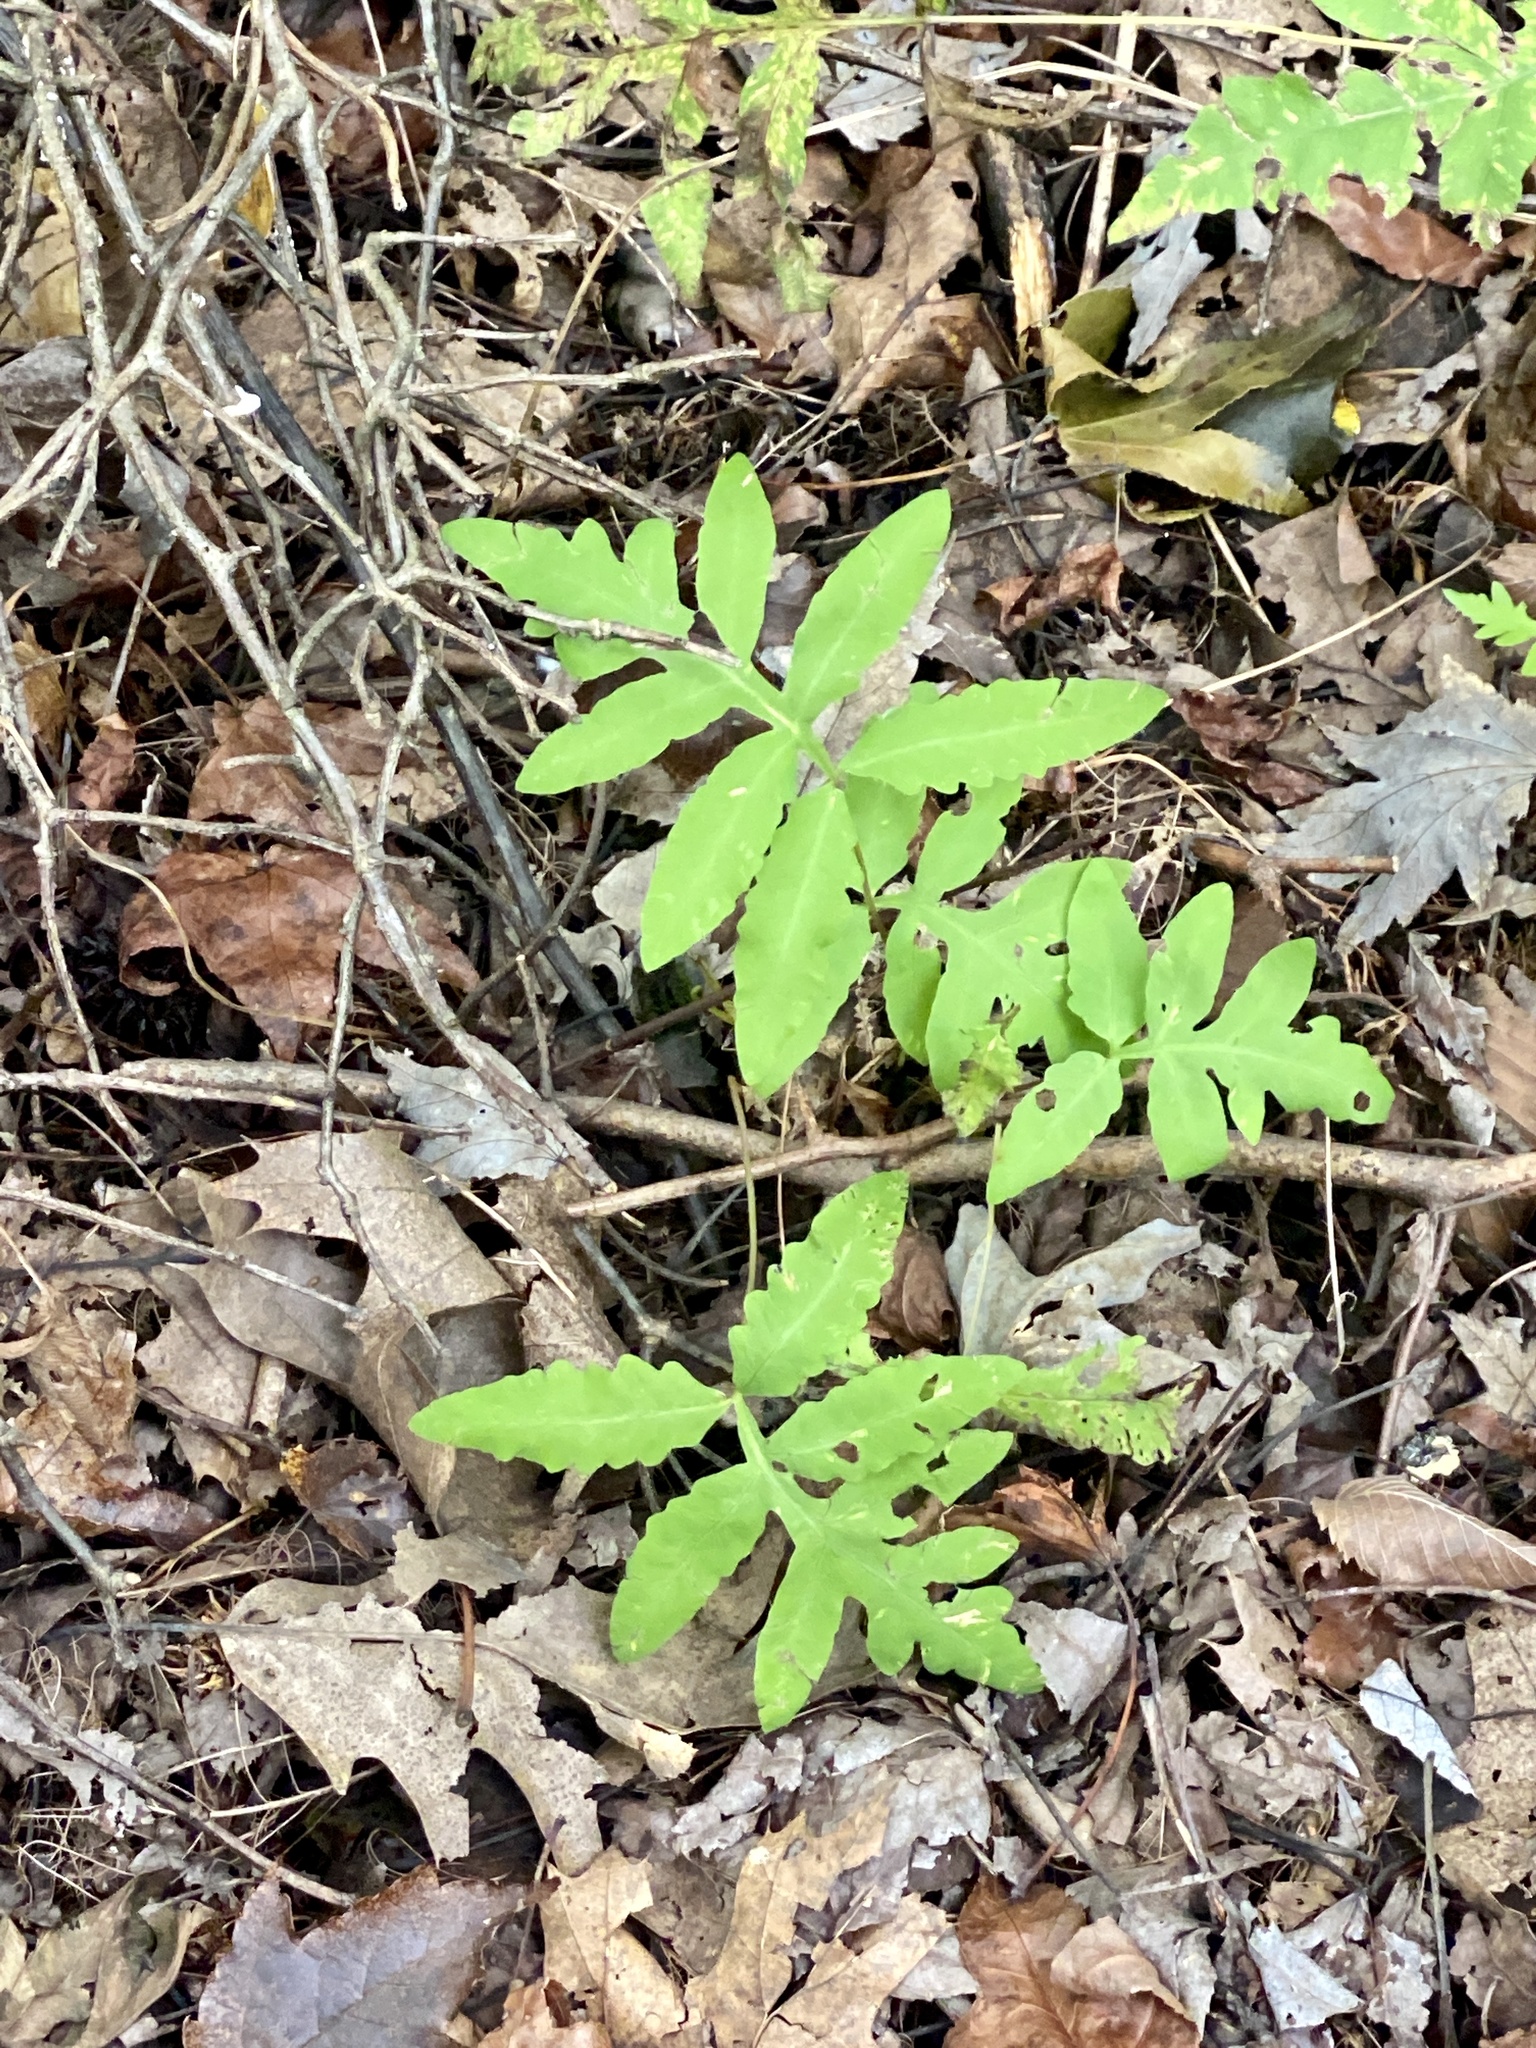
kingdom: Plantae
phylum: Tracheophyta
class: Polypodiopsida
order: Polypodiales
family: Onocleaceae
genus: Onoclea
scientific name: Onoclea sensibilis
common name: Sensitive fern
